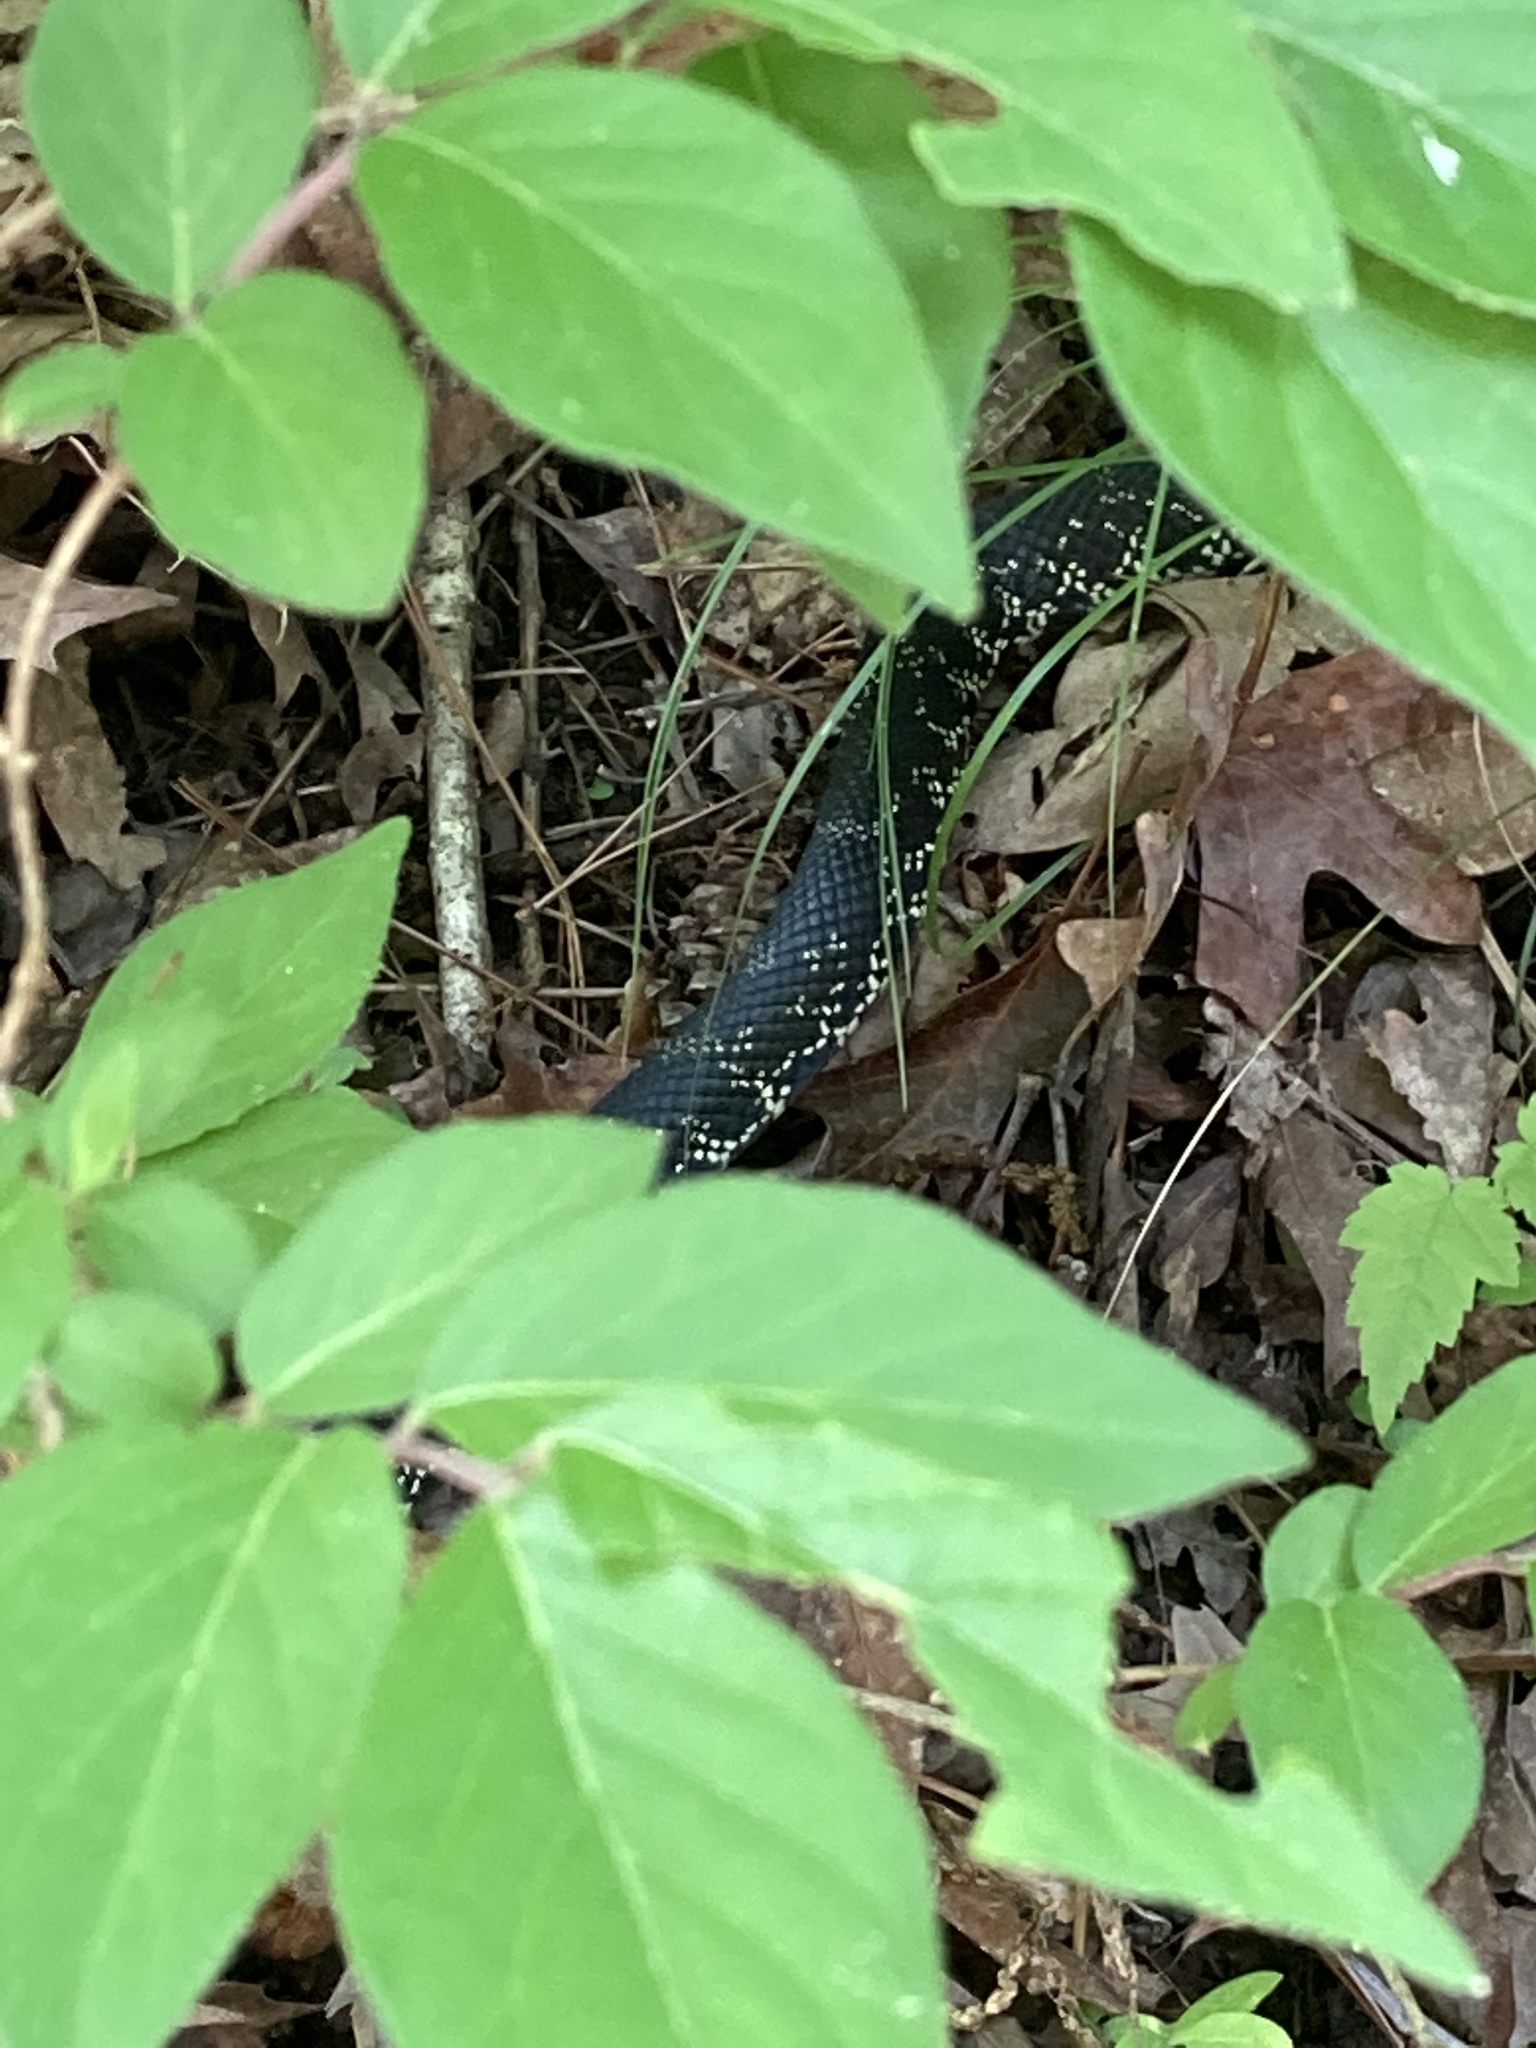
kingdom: Animalia
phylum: Chordata
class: Squamata
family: Colubridae
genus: Lampropeltis
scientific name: Lampropeltis nigra
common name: Black kingsnake
